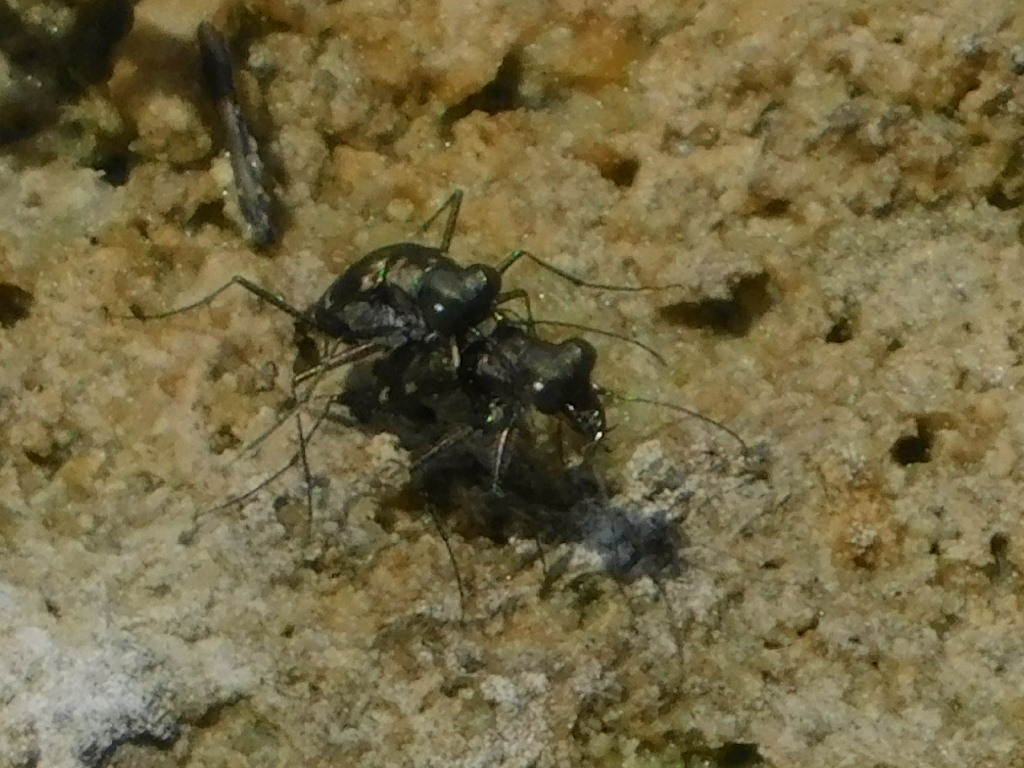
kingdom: Animalia
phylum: Arthropoda
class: Insecta
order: Coleoptera
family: Carabidae
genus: Cicindela
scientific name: Cicindela trifasciata
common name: Mudflat tiger beetle
